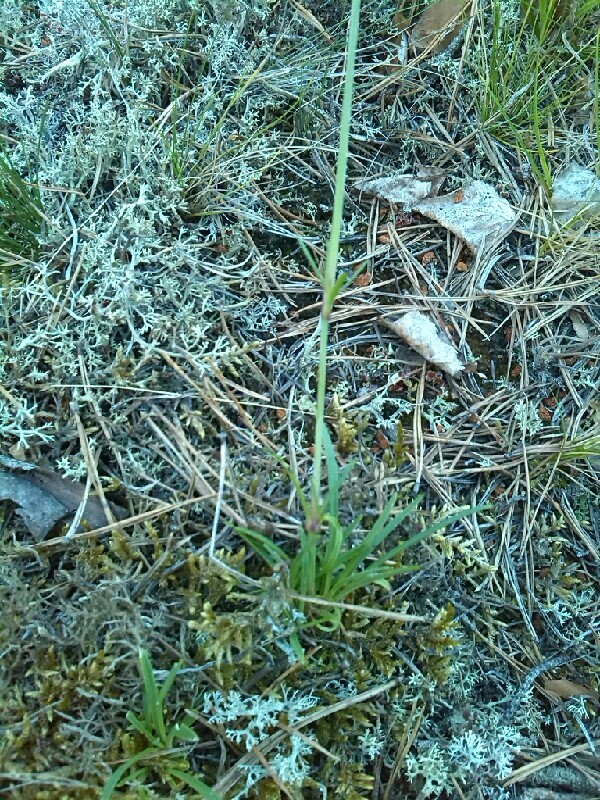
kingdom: Plantae
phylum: Tracheophyta
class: Magnoliopsida
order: Caryophyllales
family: Caryophyllaceae
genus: Gypsophila
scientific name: Gypsophila fastigiata
